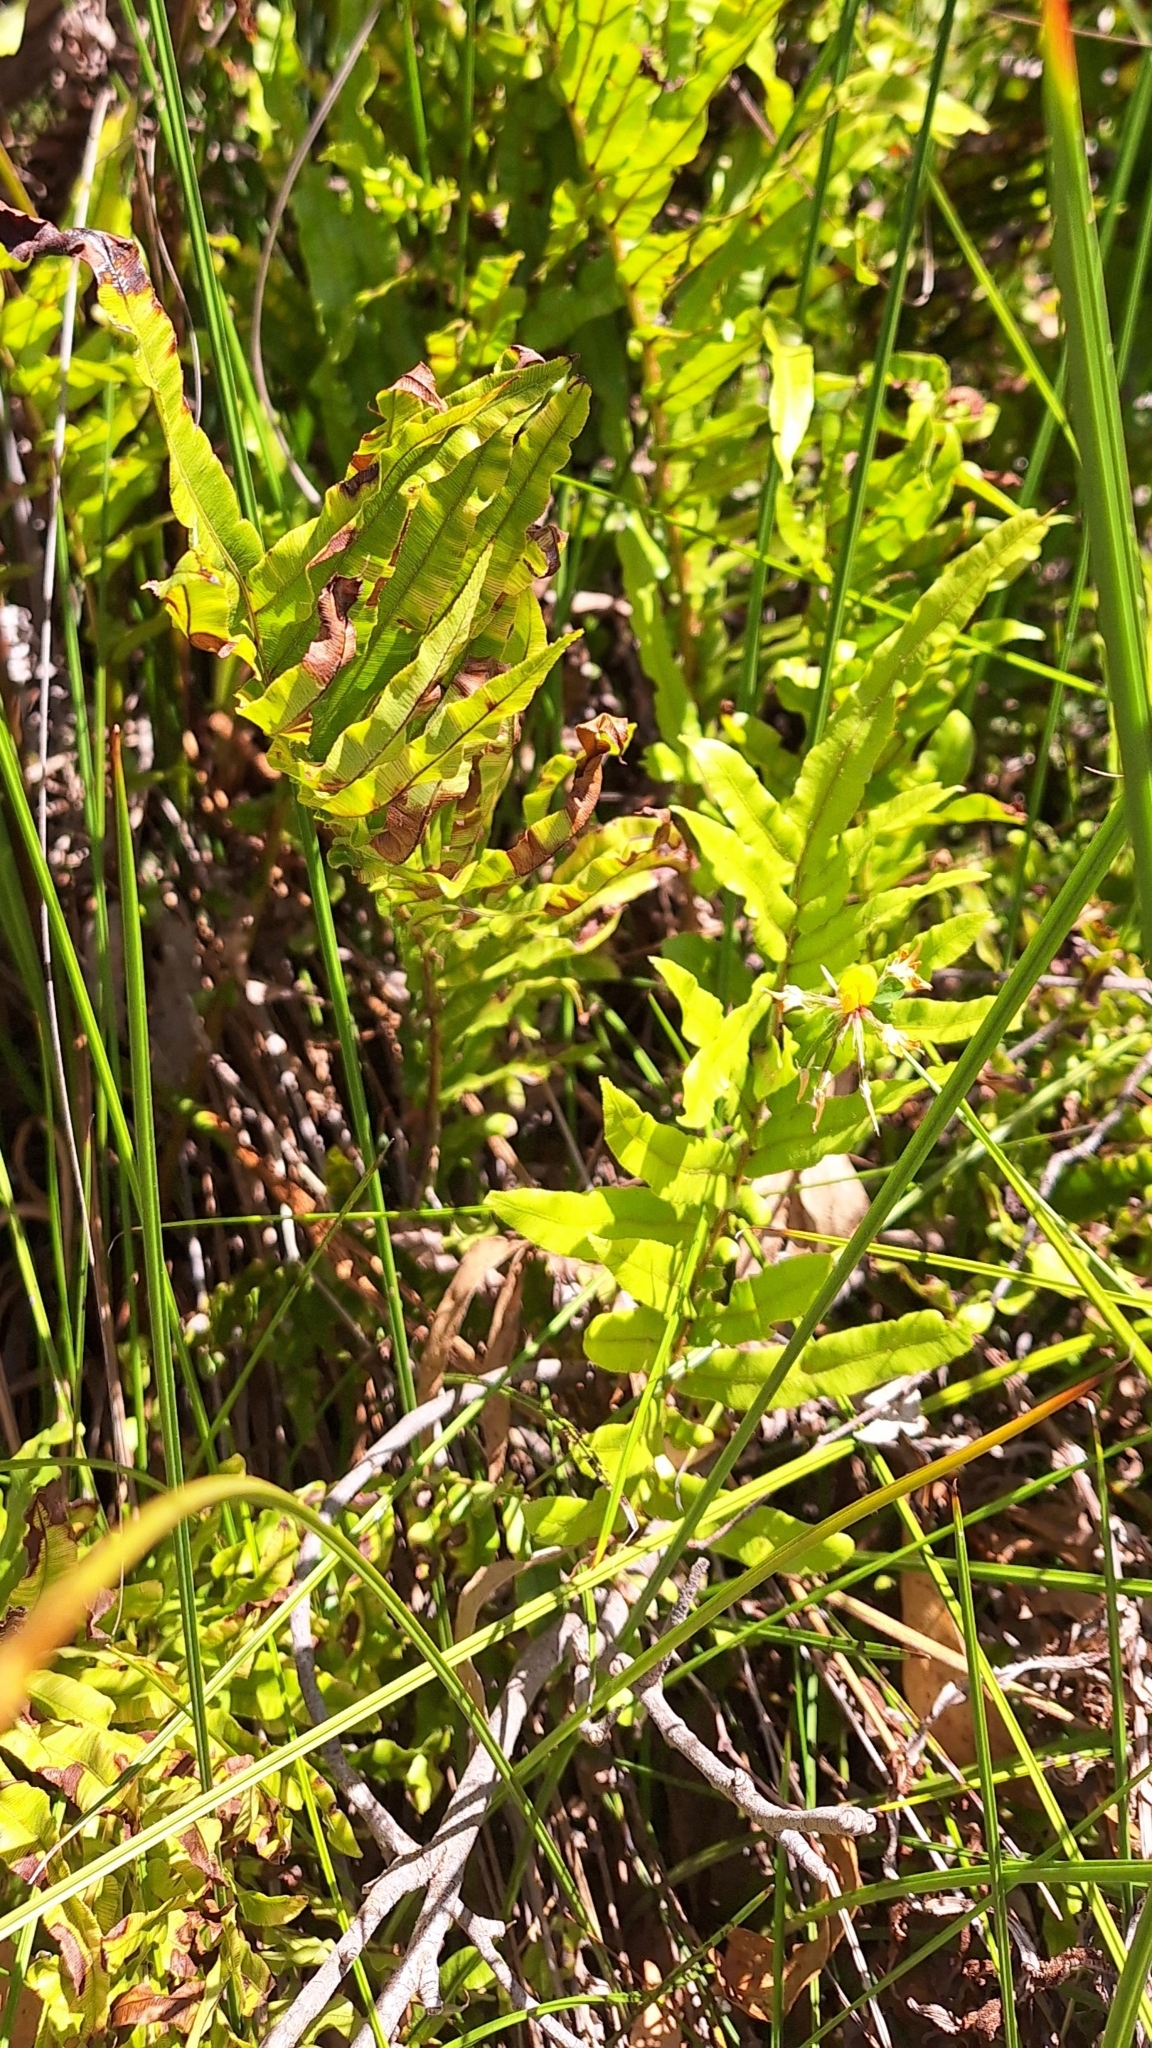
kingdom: Plantae
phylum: Tracheophyta
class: Polypodiopsida
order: Polypodiales
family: Blechnaceae
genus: Parablechnum
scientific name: Parablechnum minus
